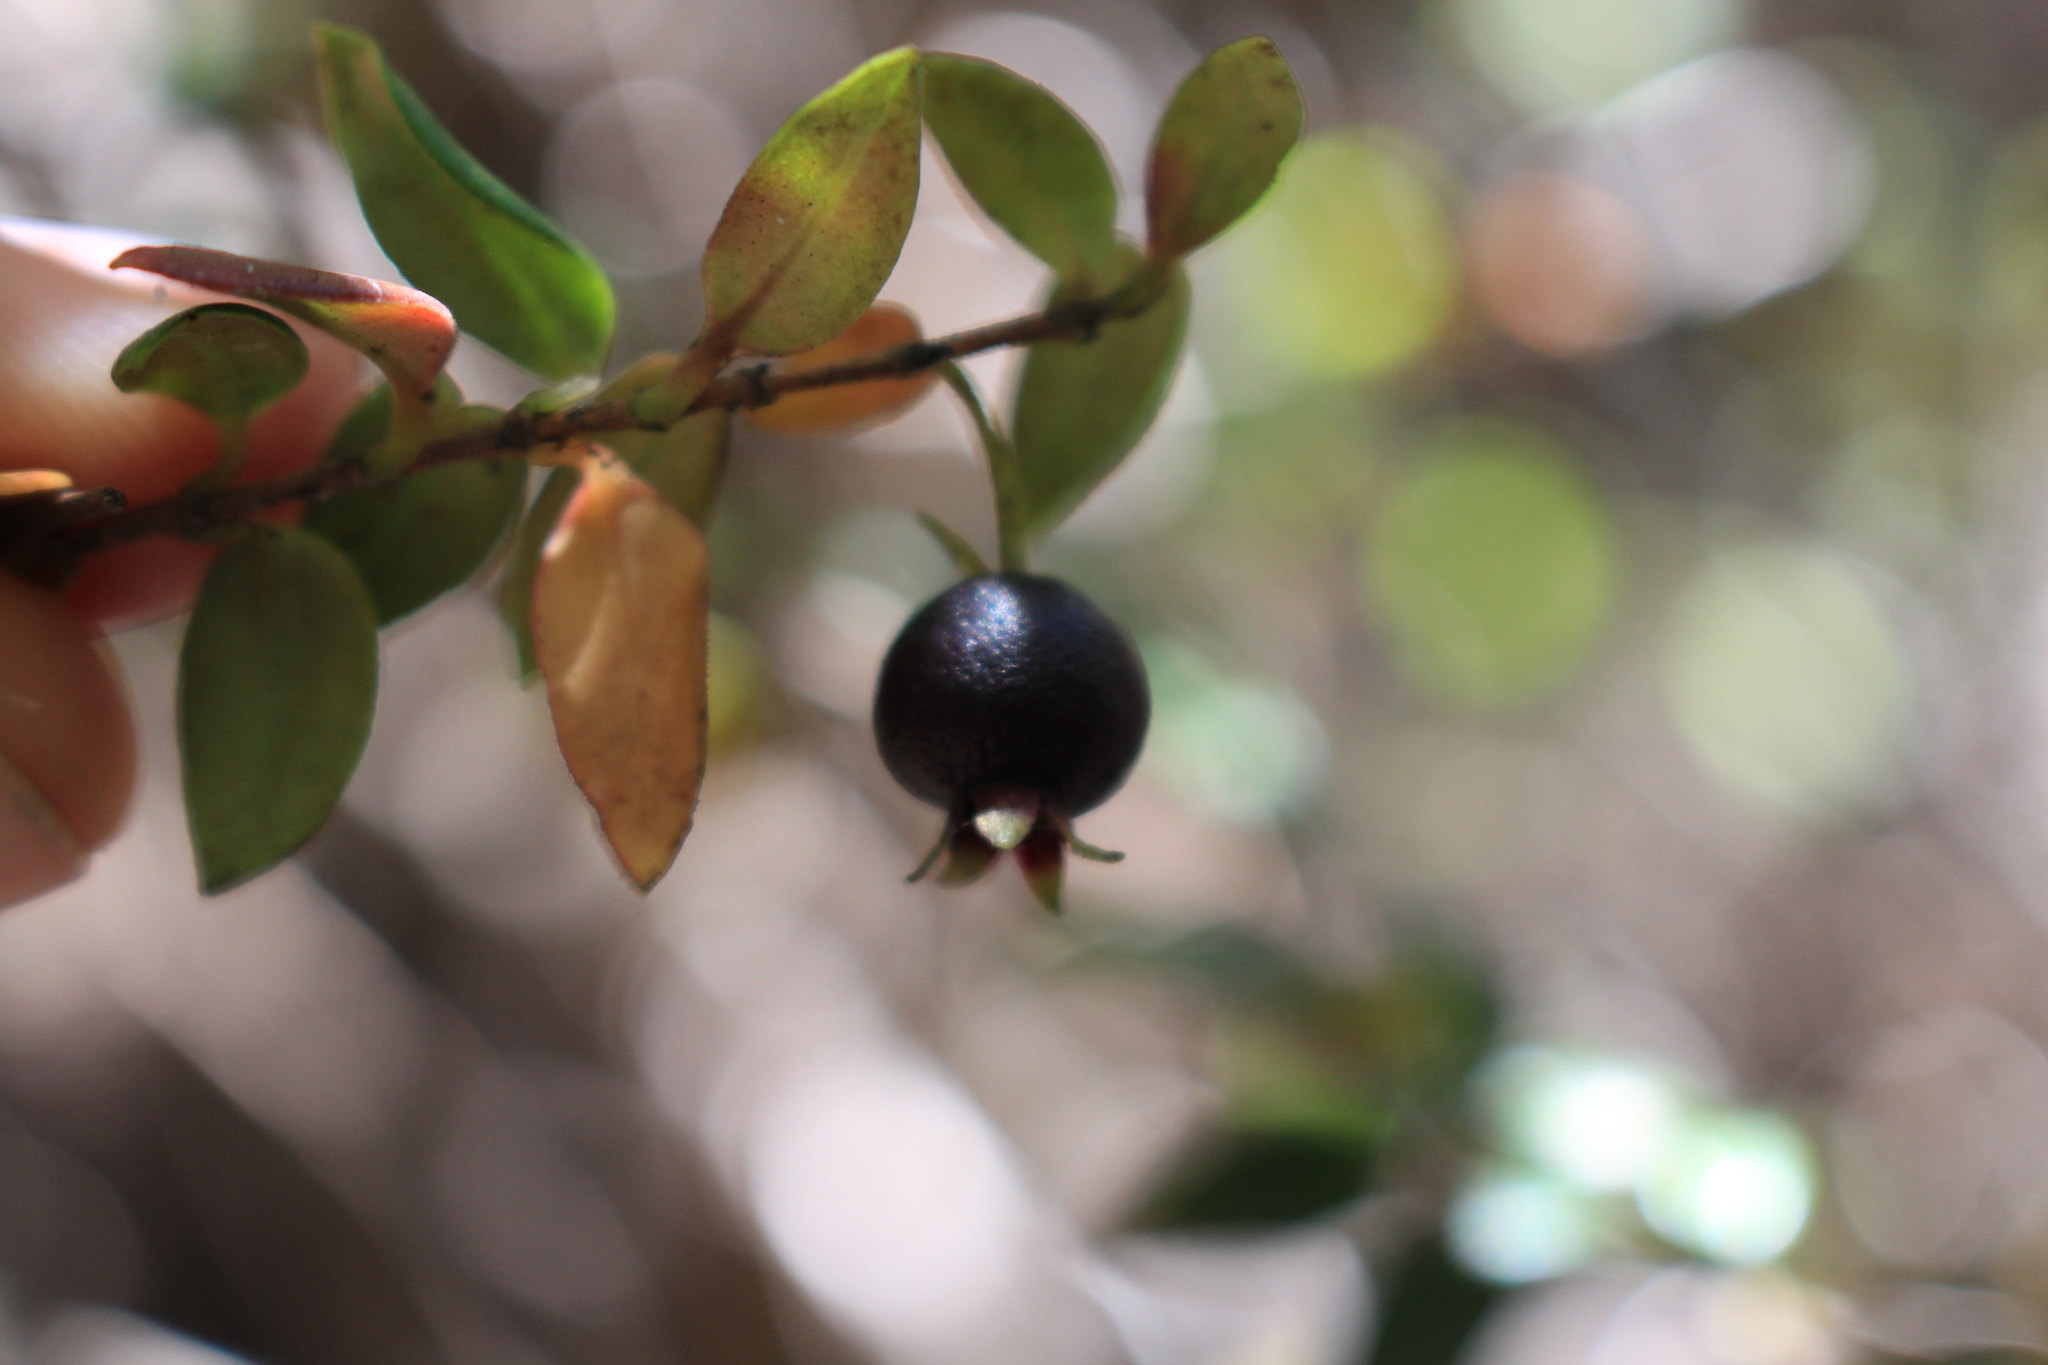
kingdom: Plantae
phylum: Tracheophyta
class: Magnoliopsida
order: Myrtales
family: Myrtaceae
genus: Ugni
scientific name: Ugni myricoides
